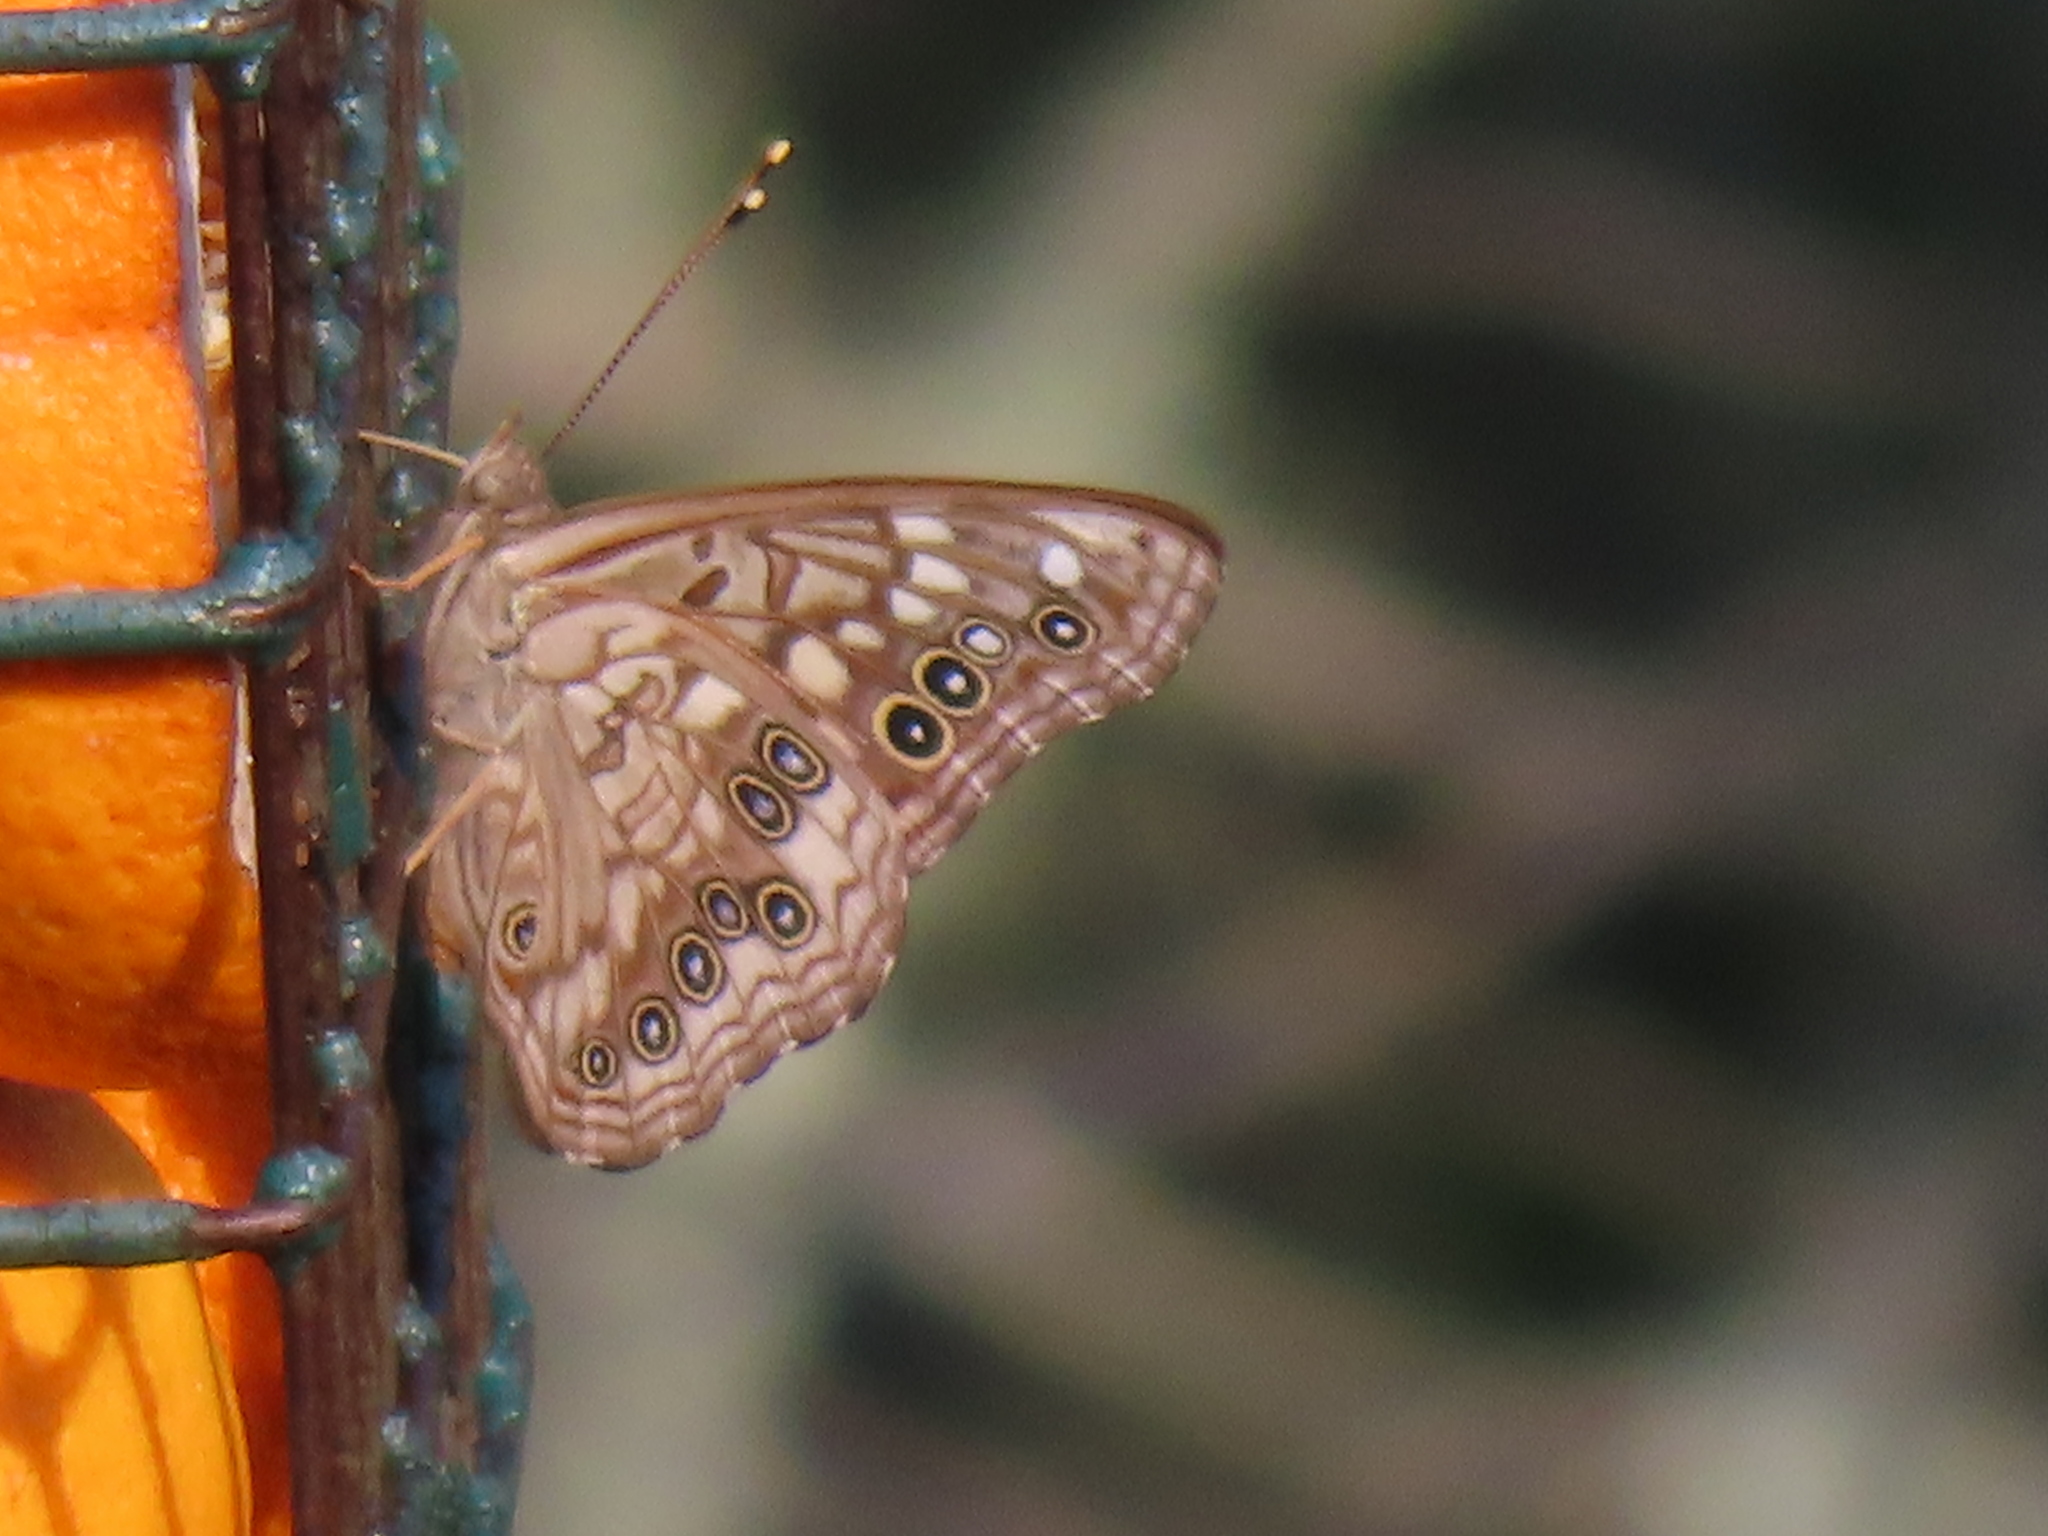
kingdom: Animalia
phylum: Arthropoda
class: Insecta
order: Lepidoptera
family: Nymphalidae
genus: Asterocampa
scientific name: Asterocampa celtis
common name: Hackberry emperor
